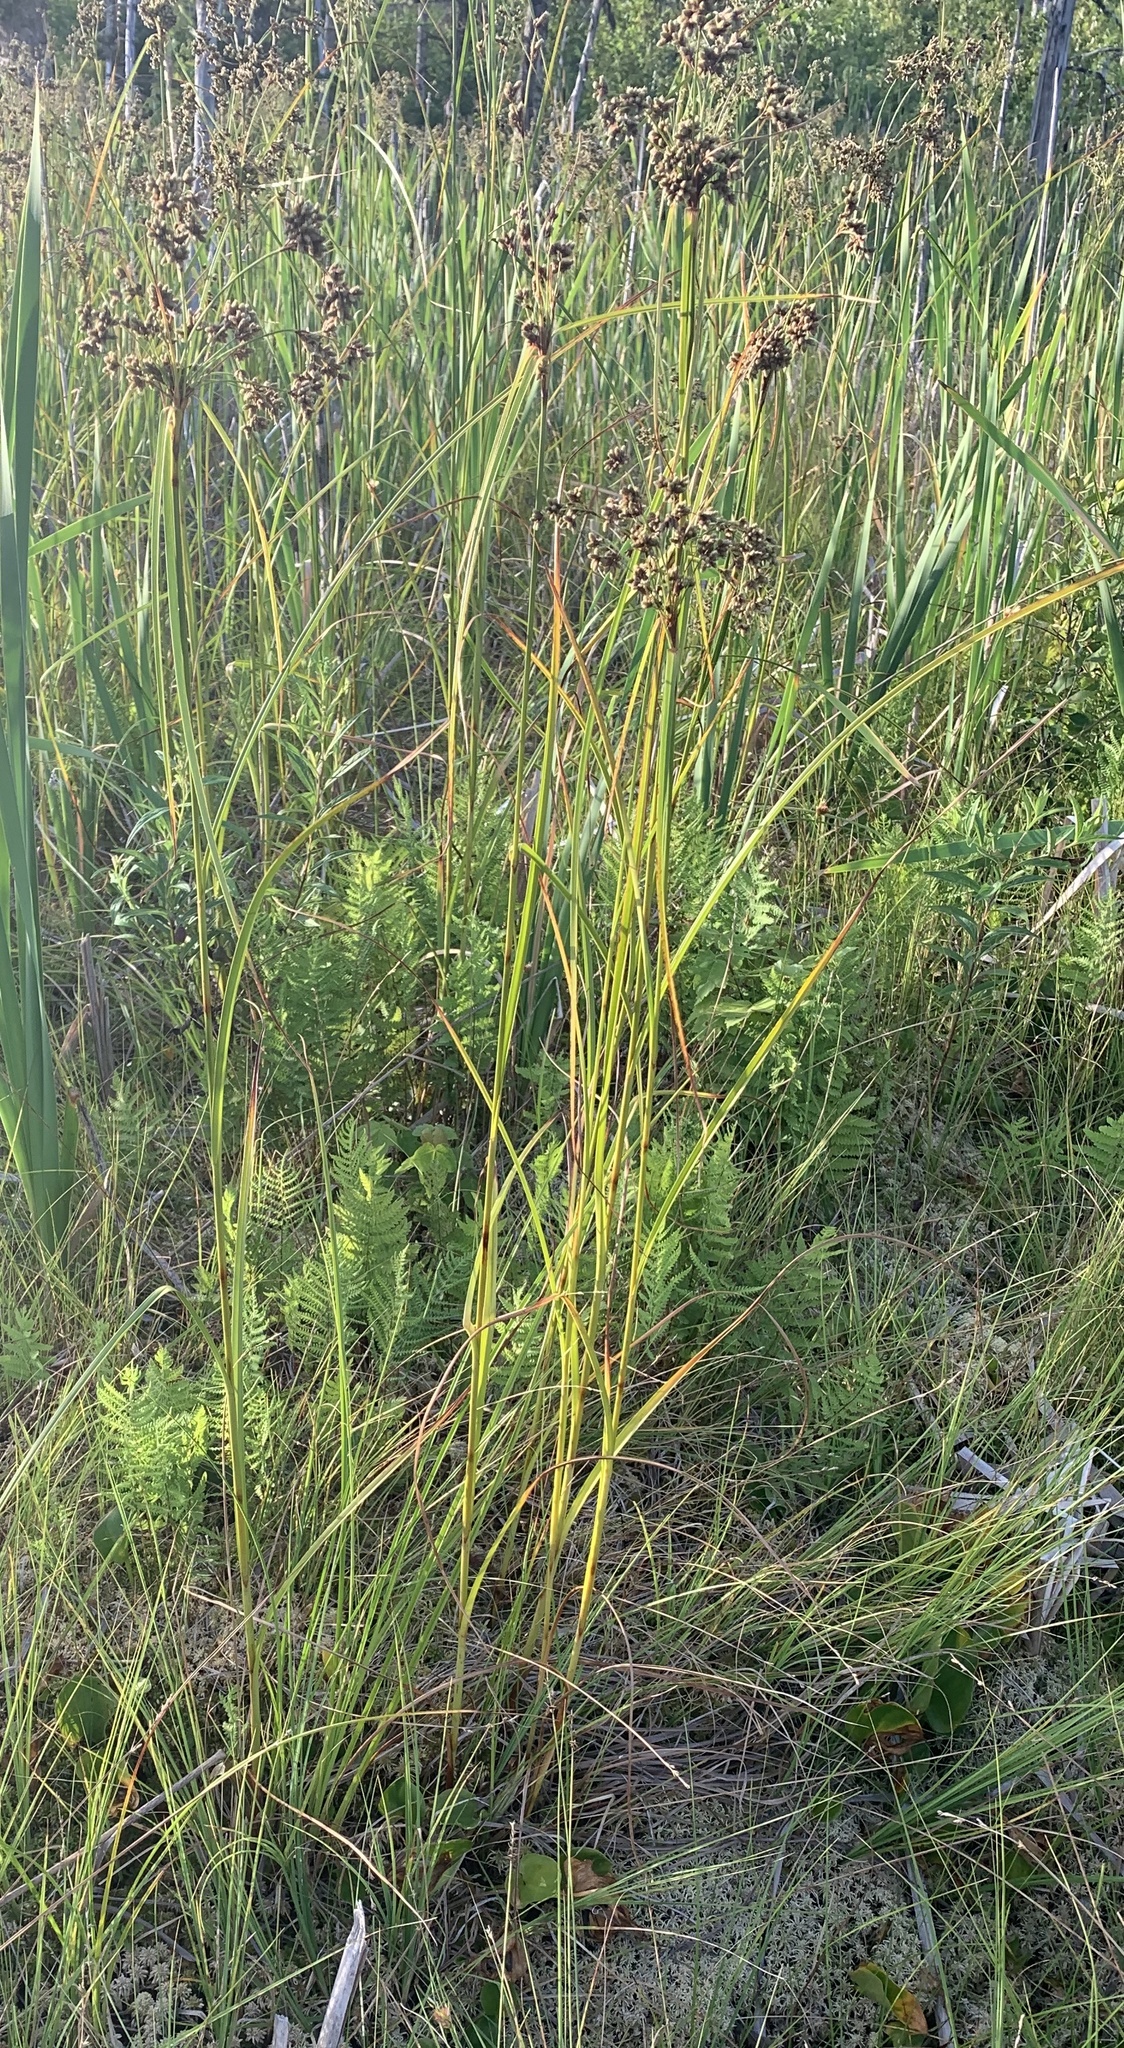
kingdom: Plantae
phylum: Tracheophyta
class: Liliopsida
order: Poales
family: Cyperaceae
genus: Scirpus
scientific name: Scirpus cyperinus
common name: Black-sheathed bulrush
